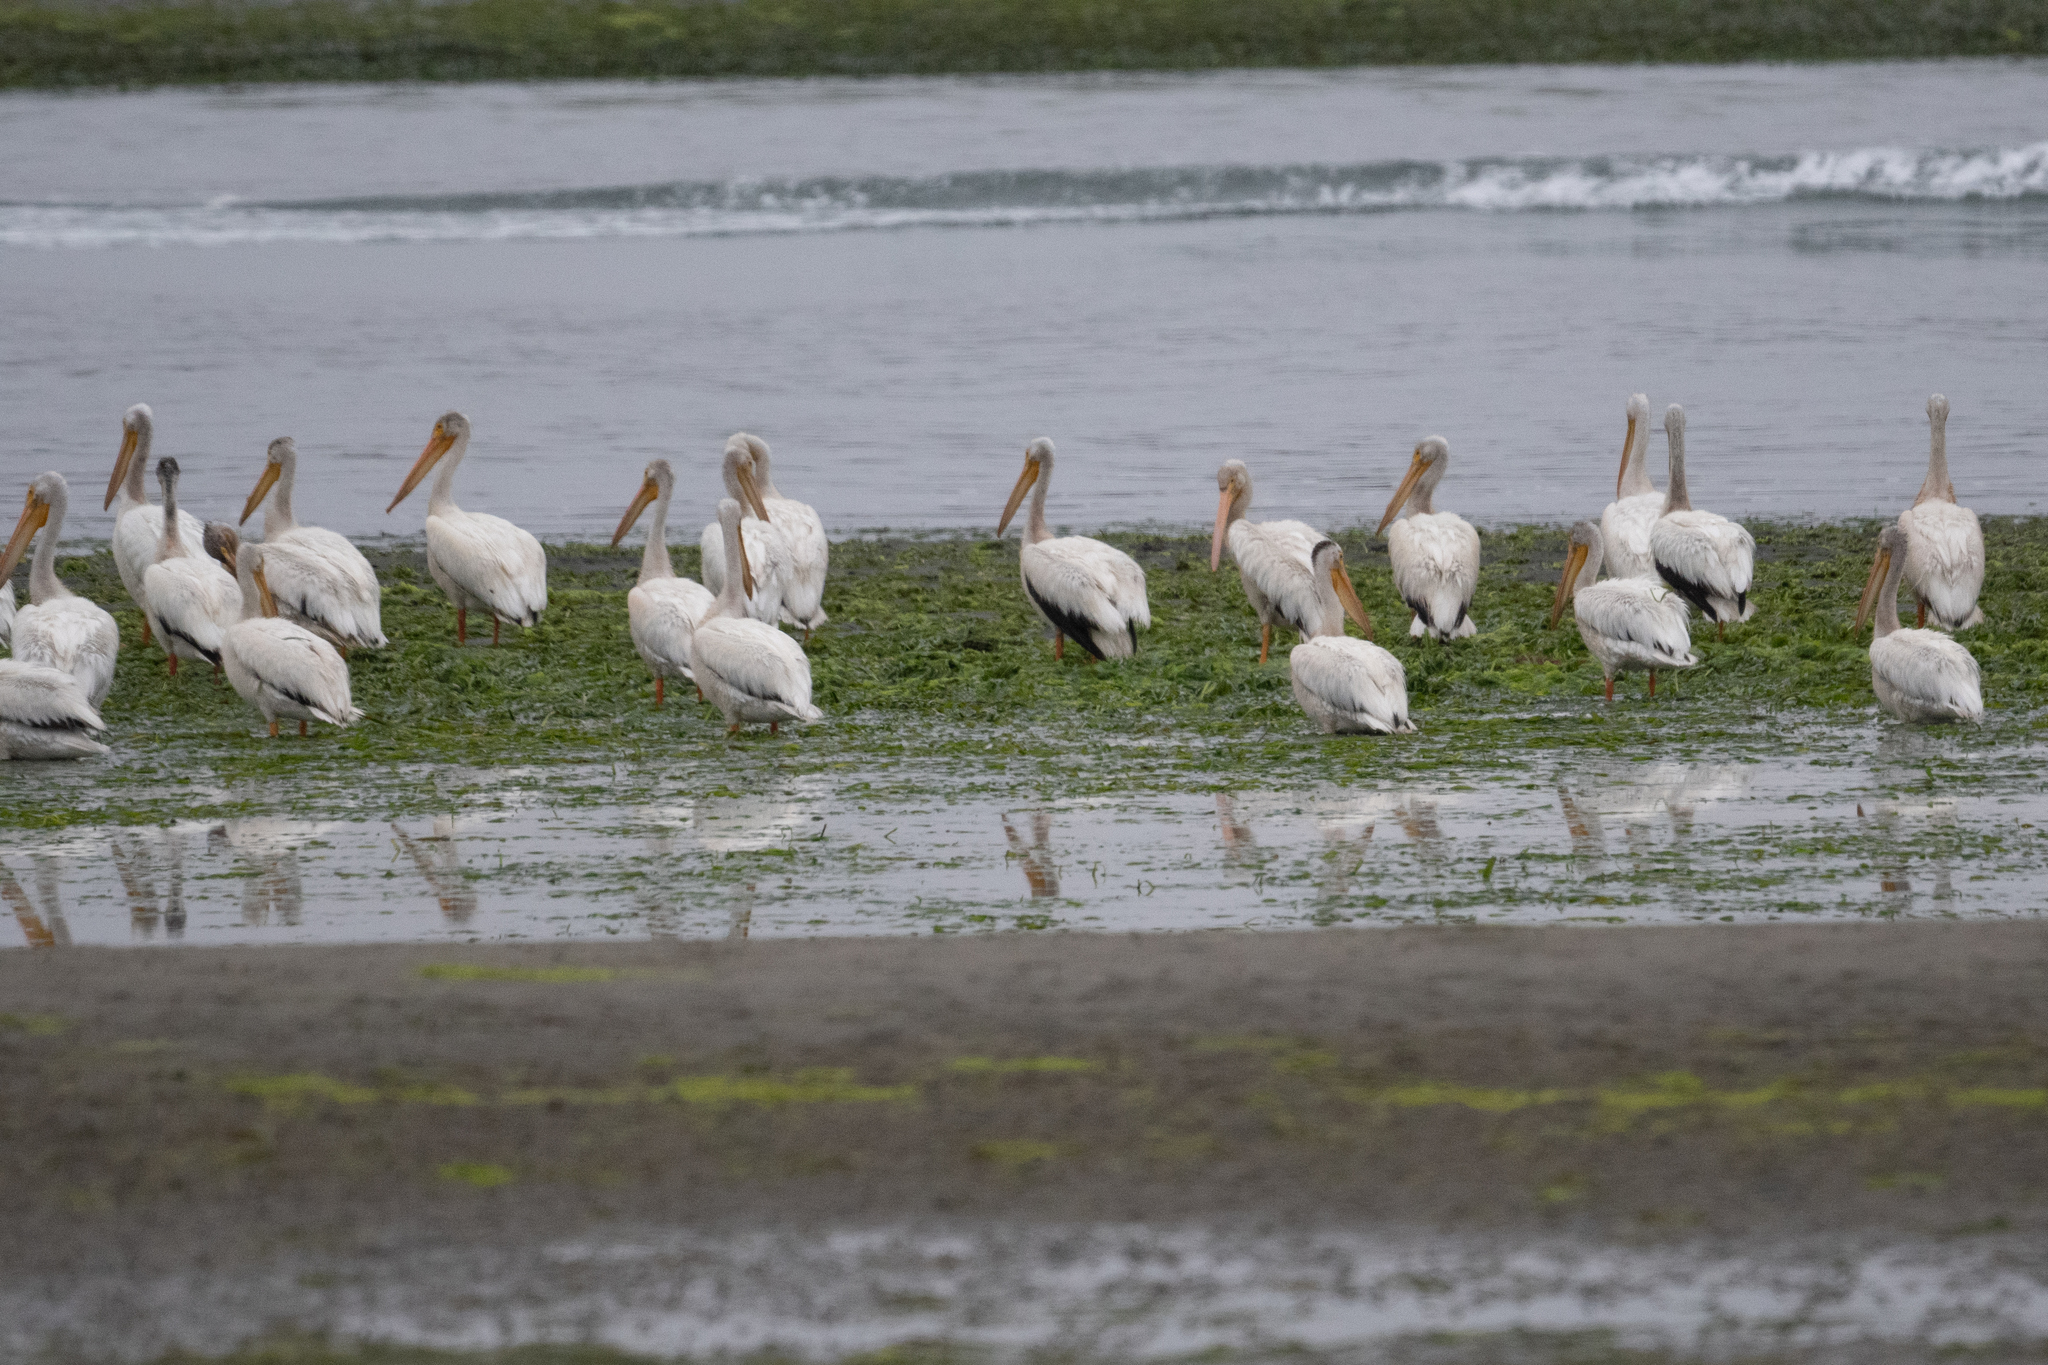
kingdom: Animalia
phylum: Chordata
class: Aves
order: Pelecaniformes
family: Pelecanidae
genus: Pelecanus
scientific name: Pelecanus erythrorhynchos
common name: American white pelican
